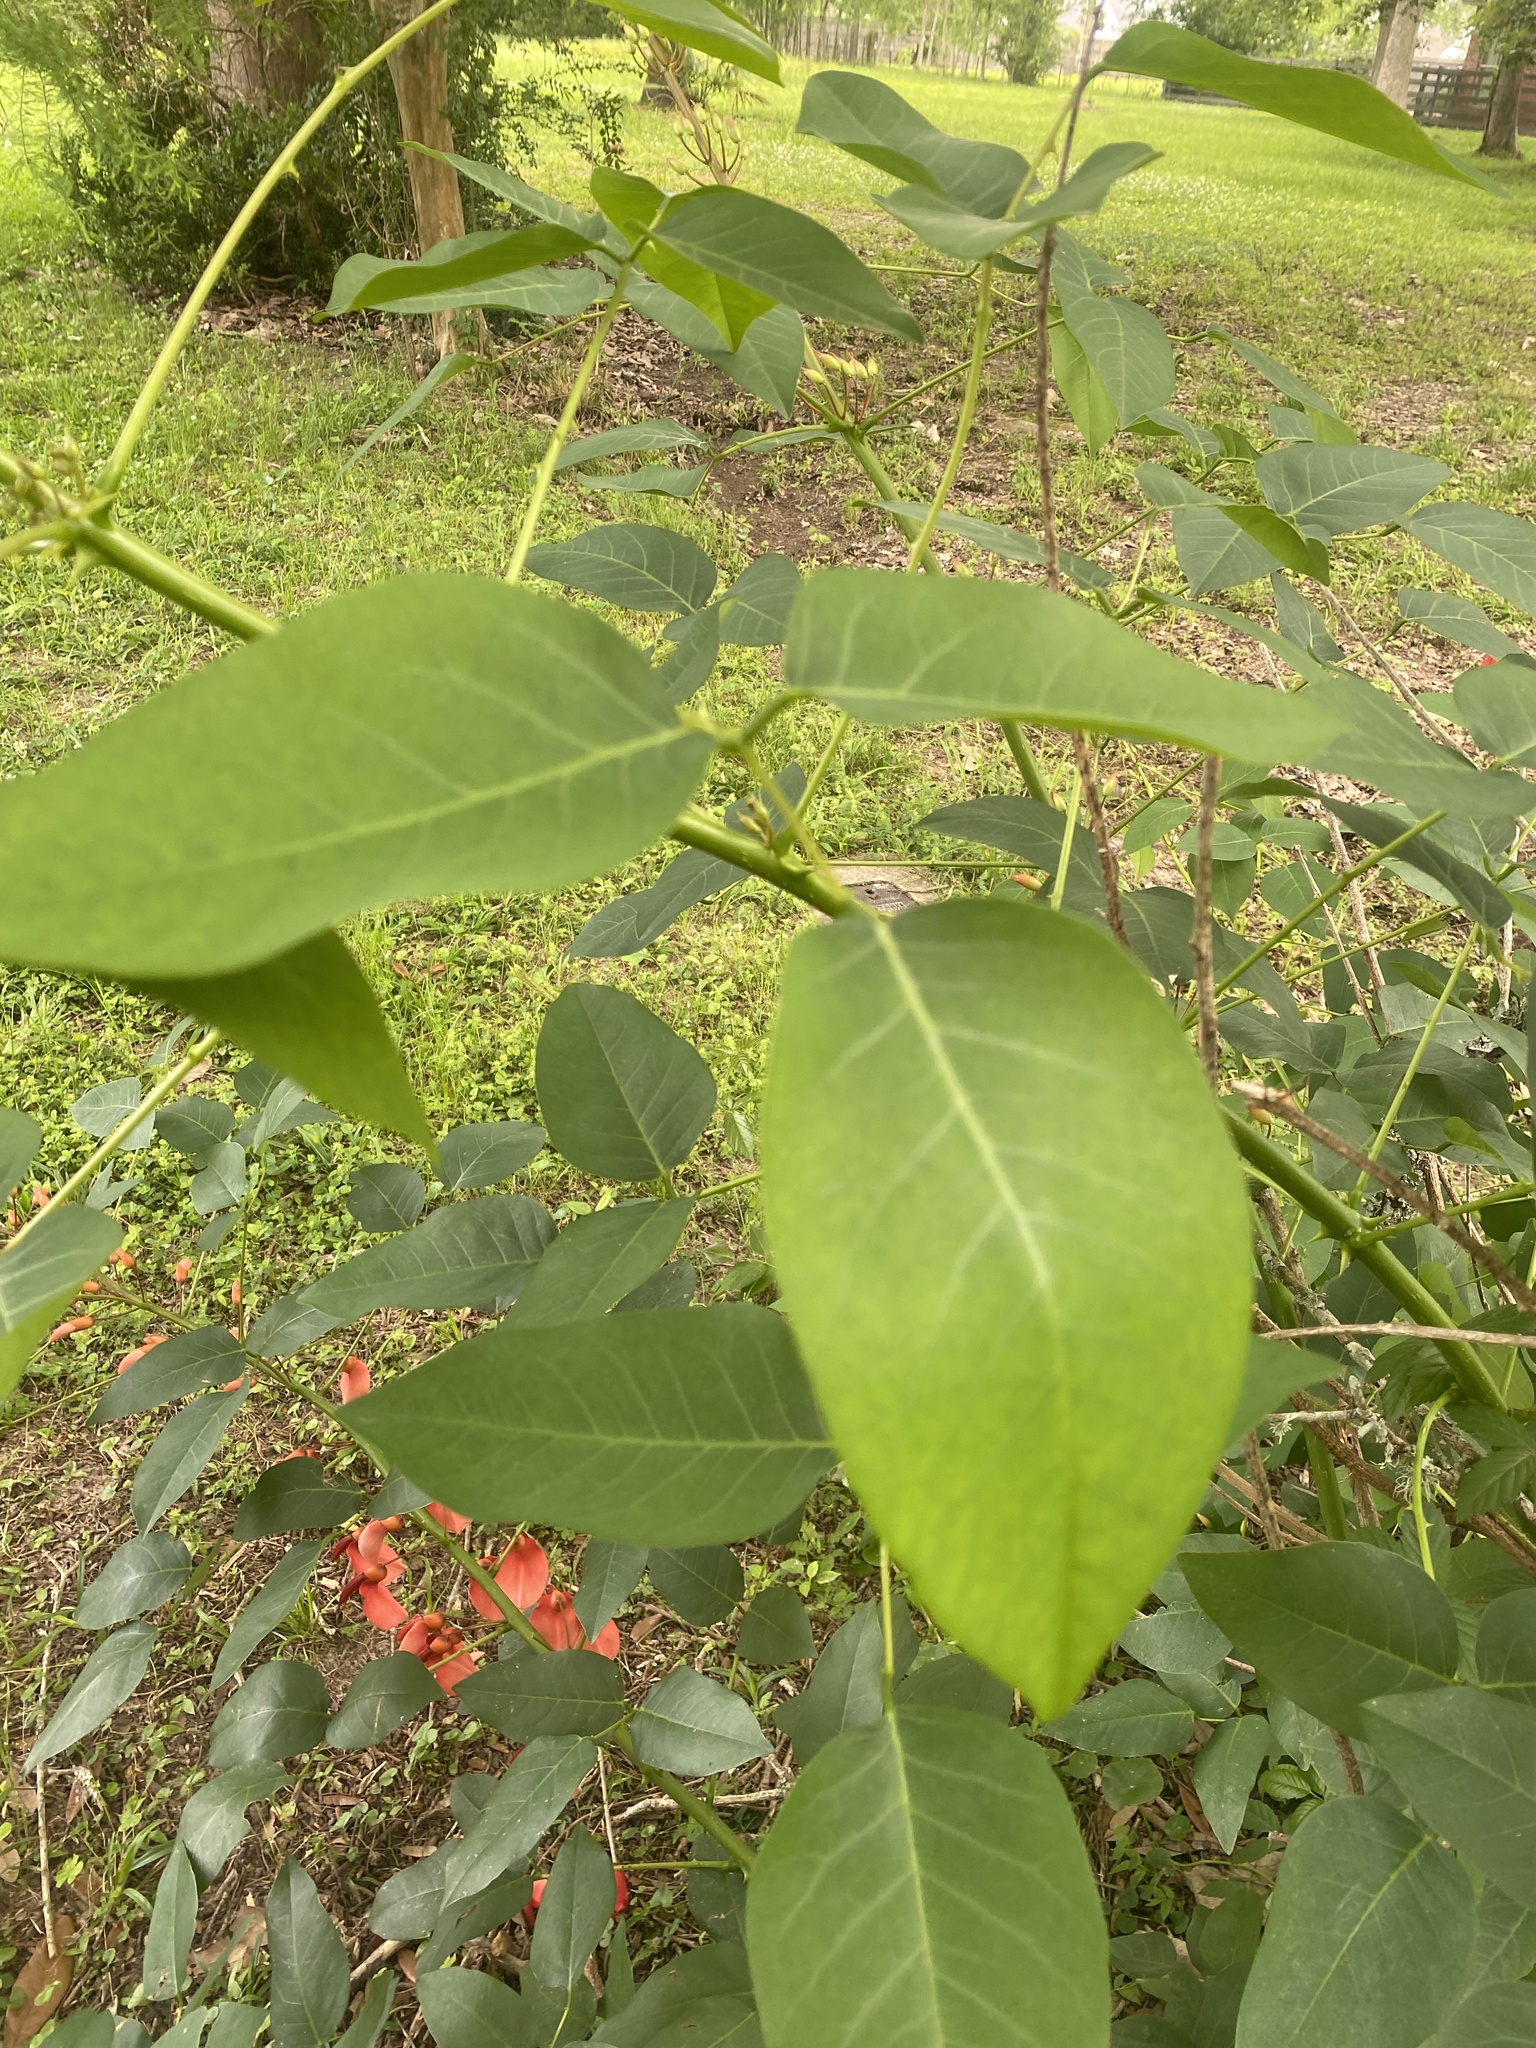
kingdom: Plantae
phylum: Tracheophyta
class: Magnoliopsida
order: Fabales
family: Fabaceae
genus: Erythrina
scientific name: Erythrina crista-galli
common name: Cockspur coral tree
